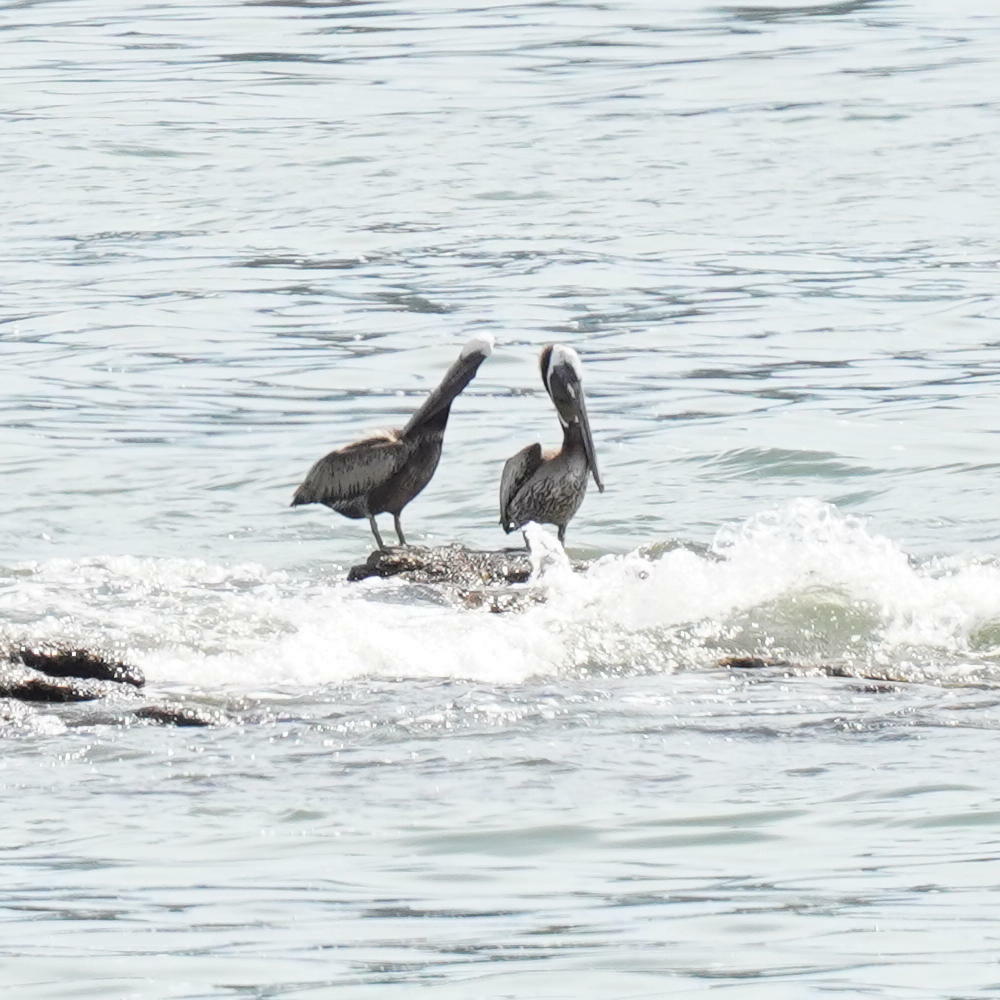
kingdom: Animalia
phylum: Chordata
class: Aves
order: Pelecaniformes
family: Pelecanidae
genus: Pelecanus
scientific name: Pelecanus occidentalis
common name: Brown pelican
